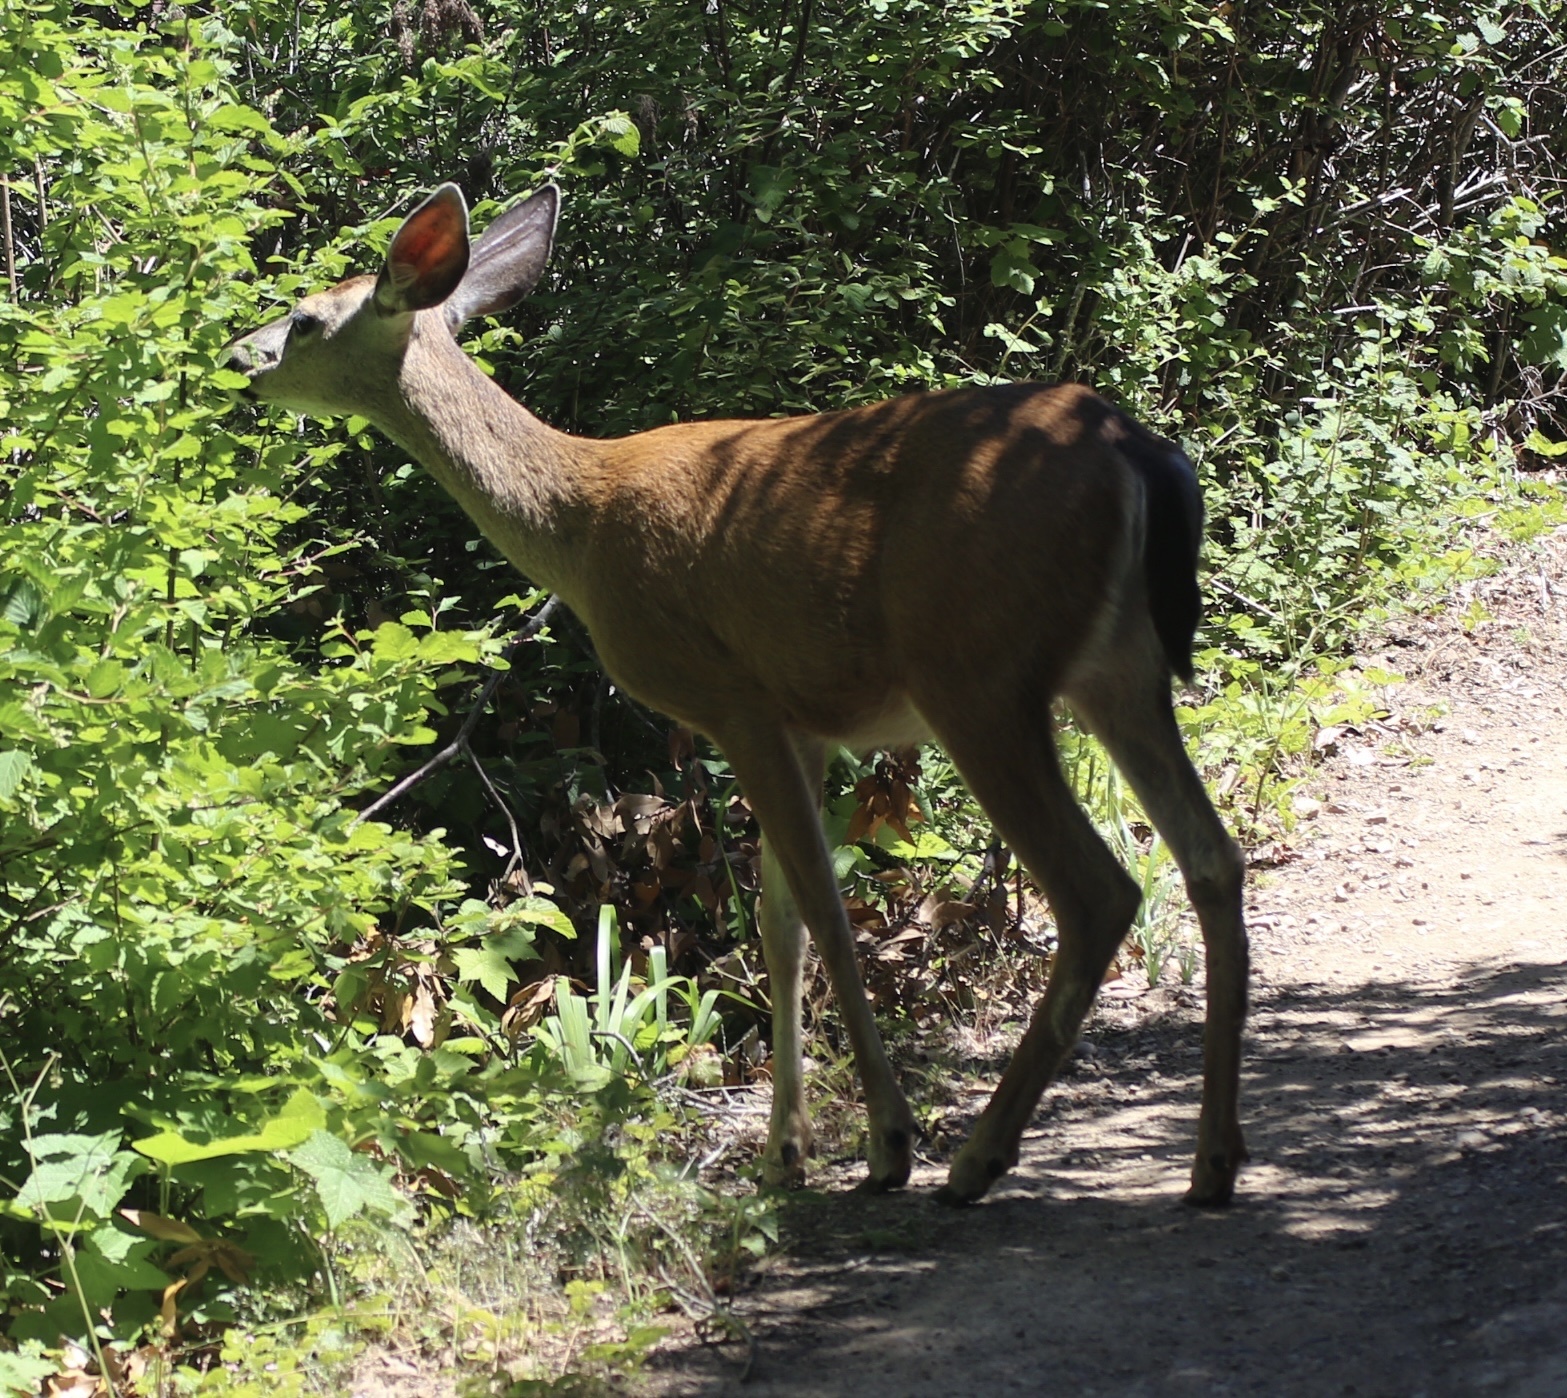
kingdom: Animalia
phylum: Chordata
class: Mammalia
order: Artiodactyla
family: Cervidae
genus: Odocoileus
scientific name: Odocoileus hemionus
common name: Mule deer
